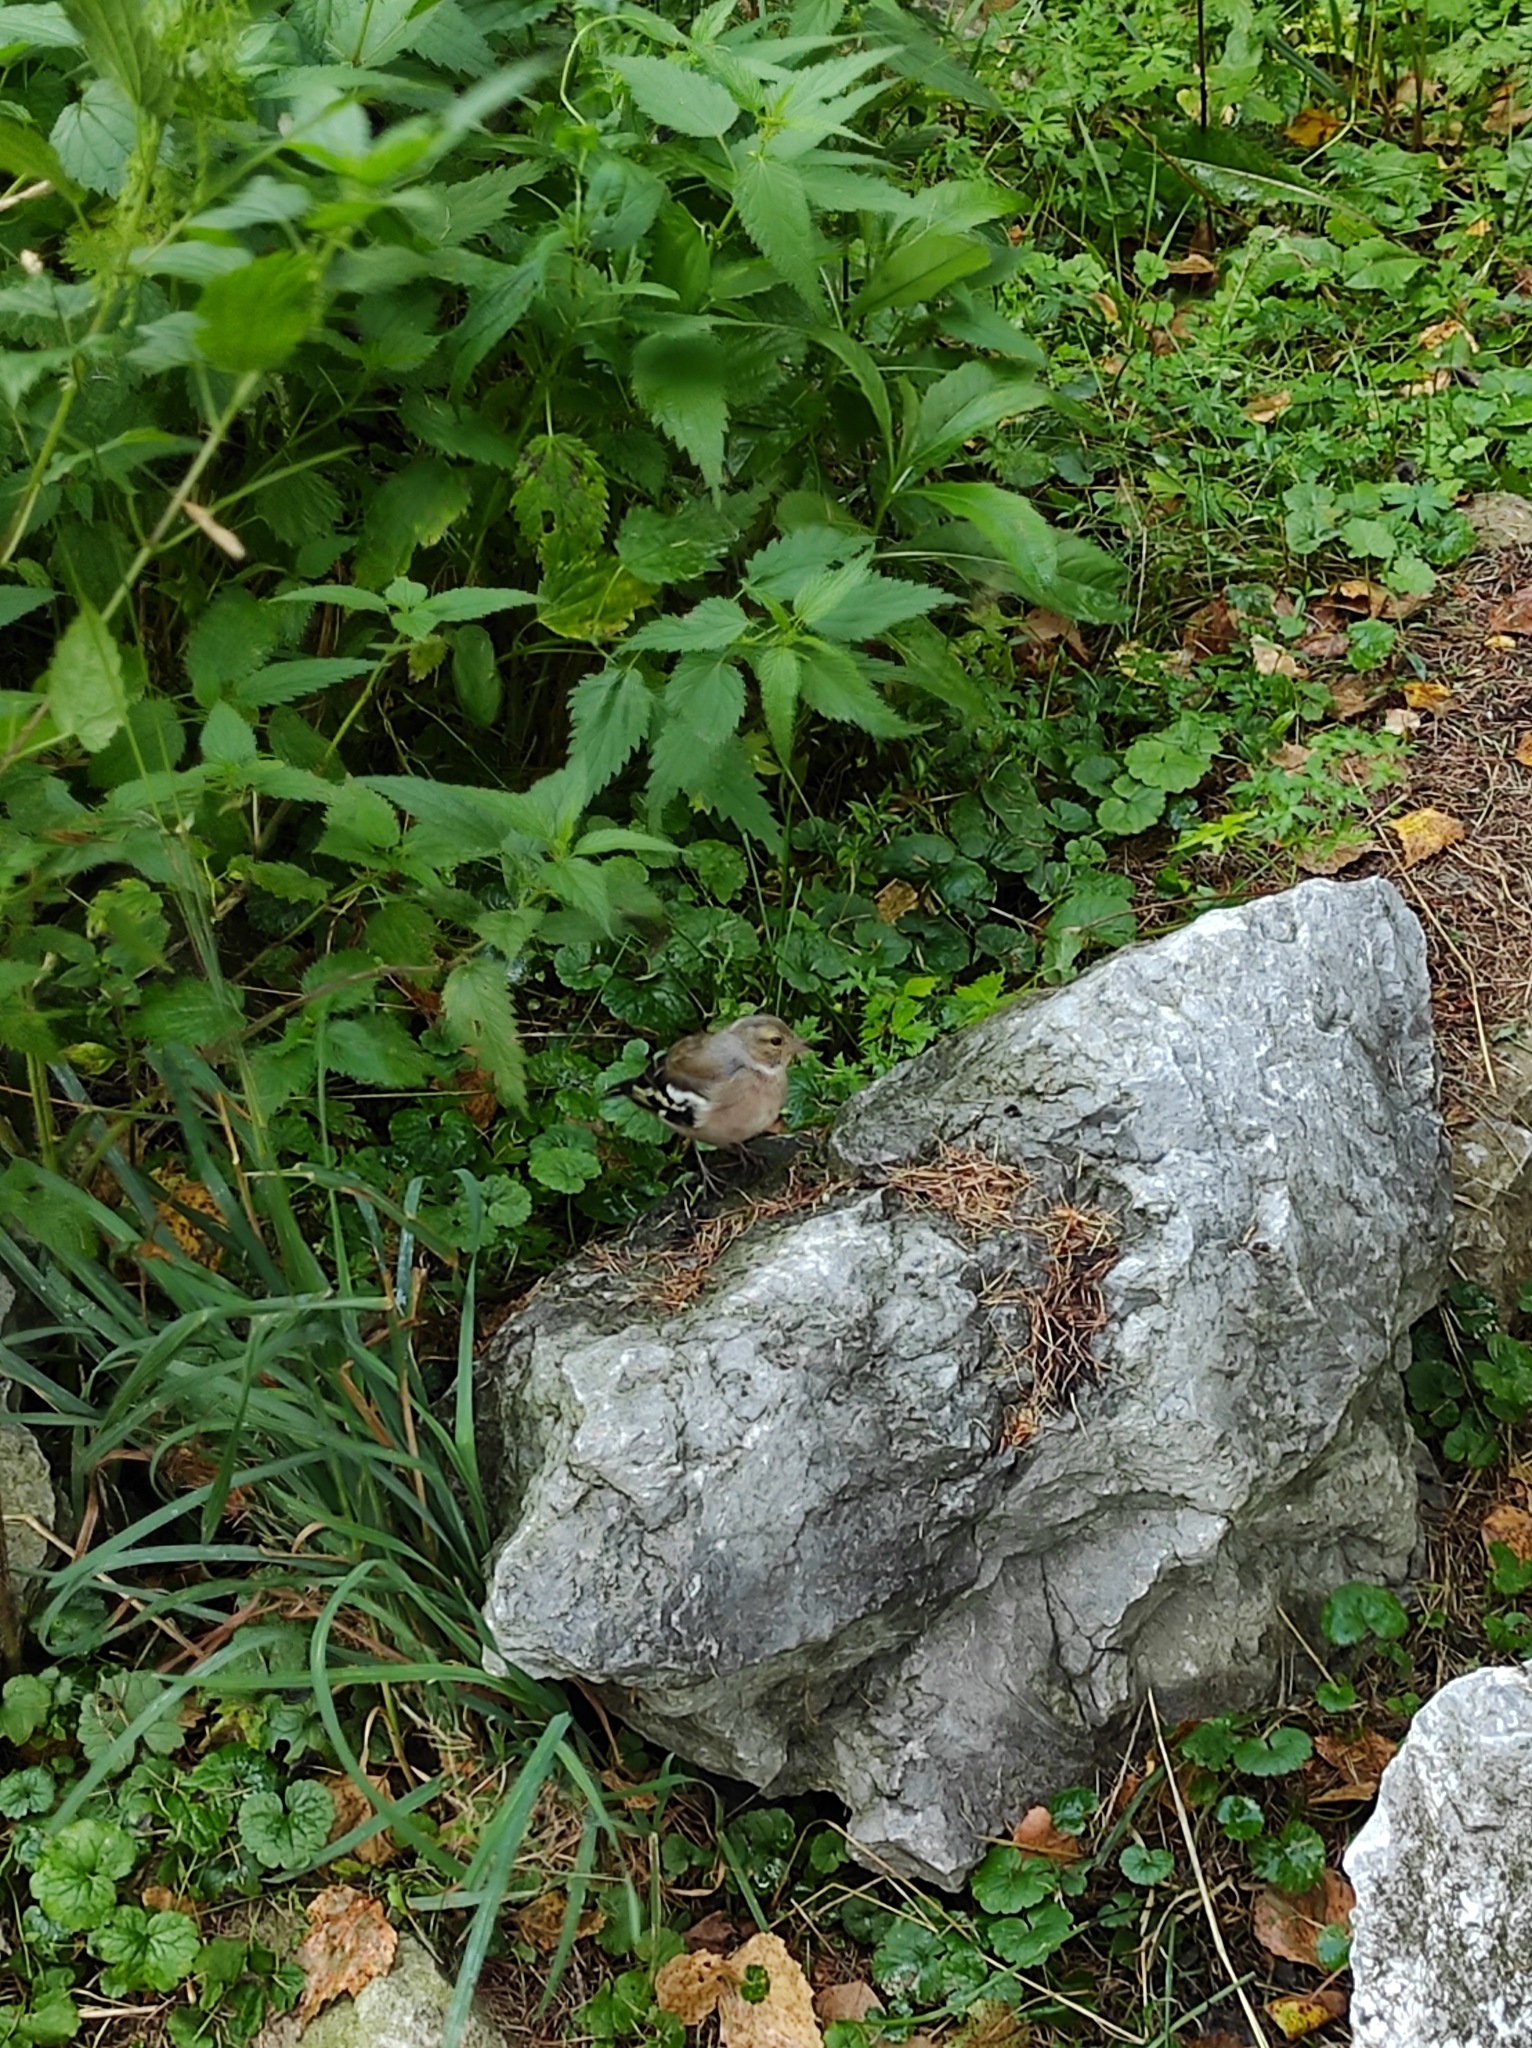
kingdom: Animalia
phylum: Chordata
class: Aves
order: Passeriformes
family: Fringillidae
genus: Fringilla
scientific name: Fringilla coelebs
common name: Common chaffinch
